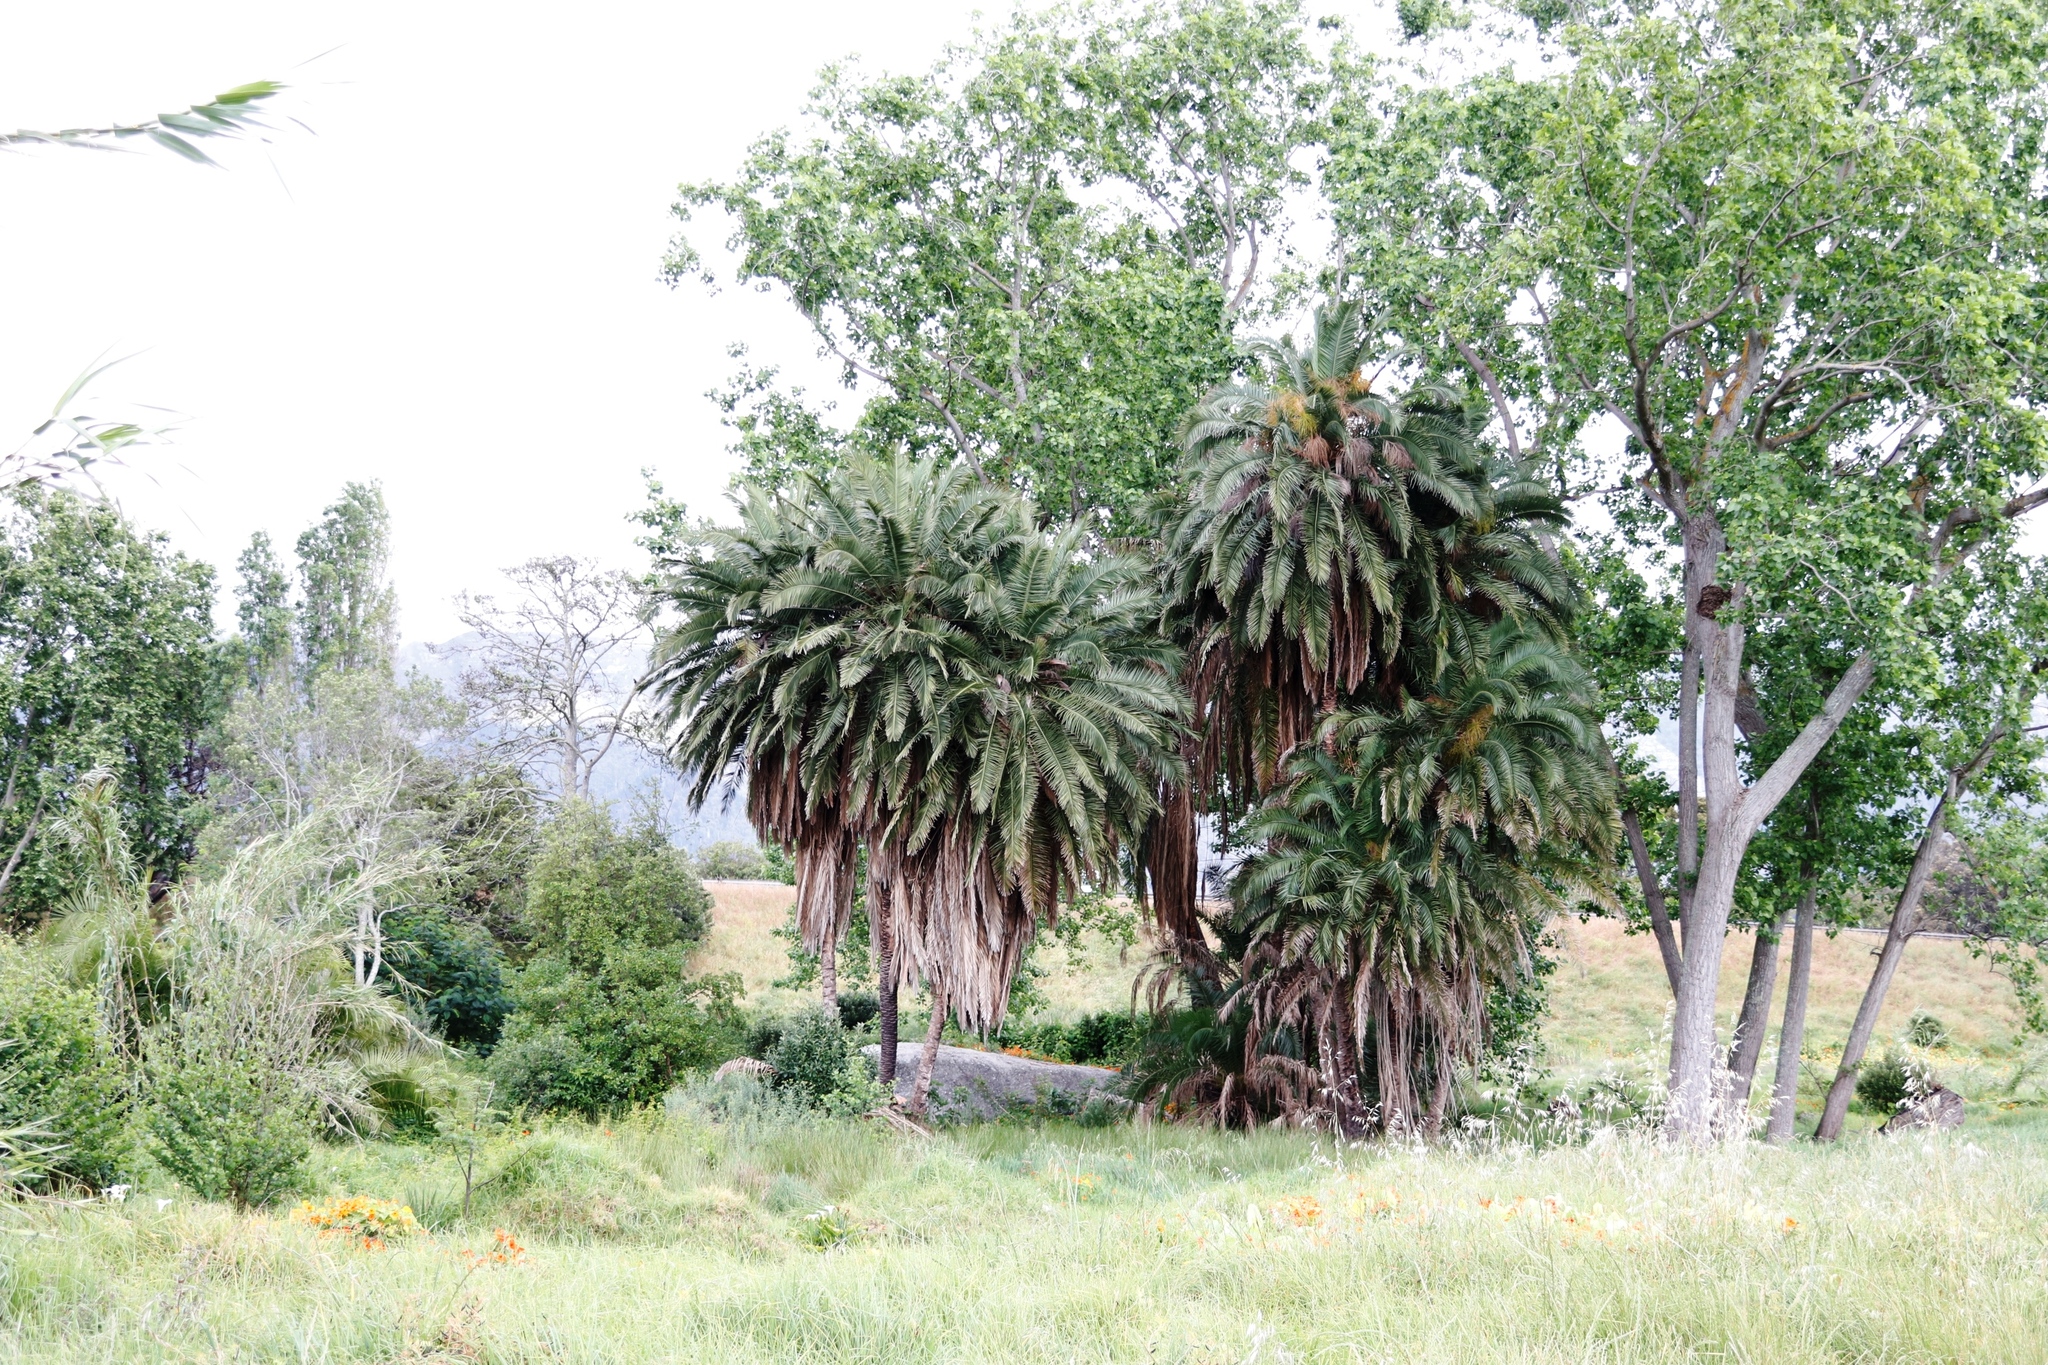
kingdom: Plantae
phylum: Tracheophyta
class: Liliopsida
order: Arecales
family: Arecaceae
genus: Phoenix
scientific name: Phoenix reclinata
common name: Senegal date palm
